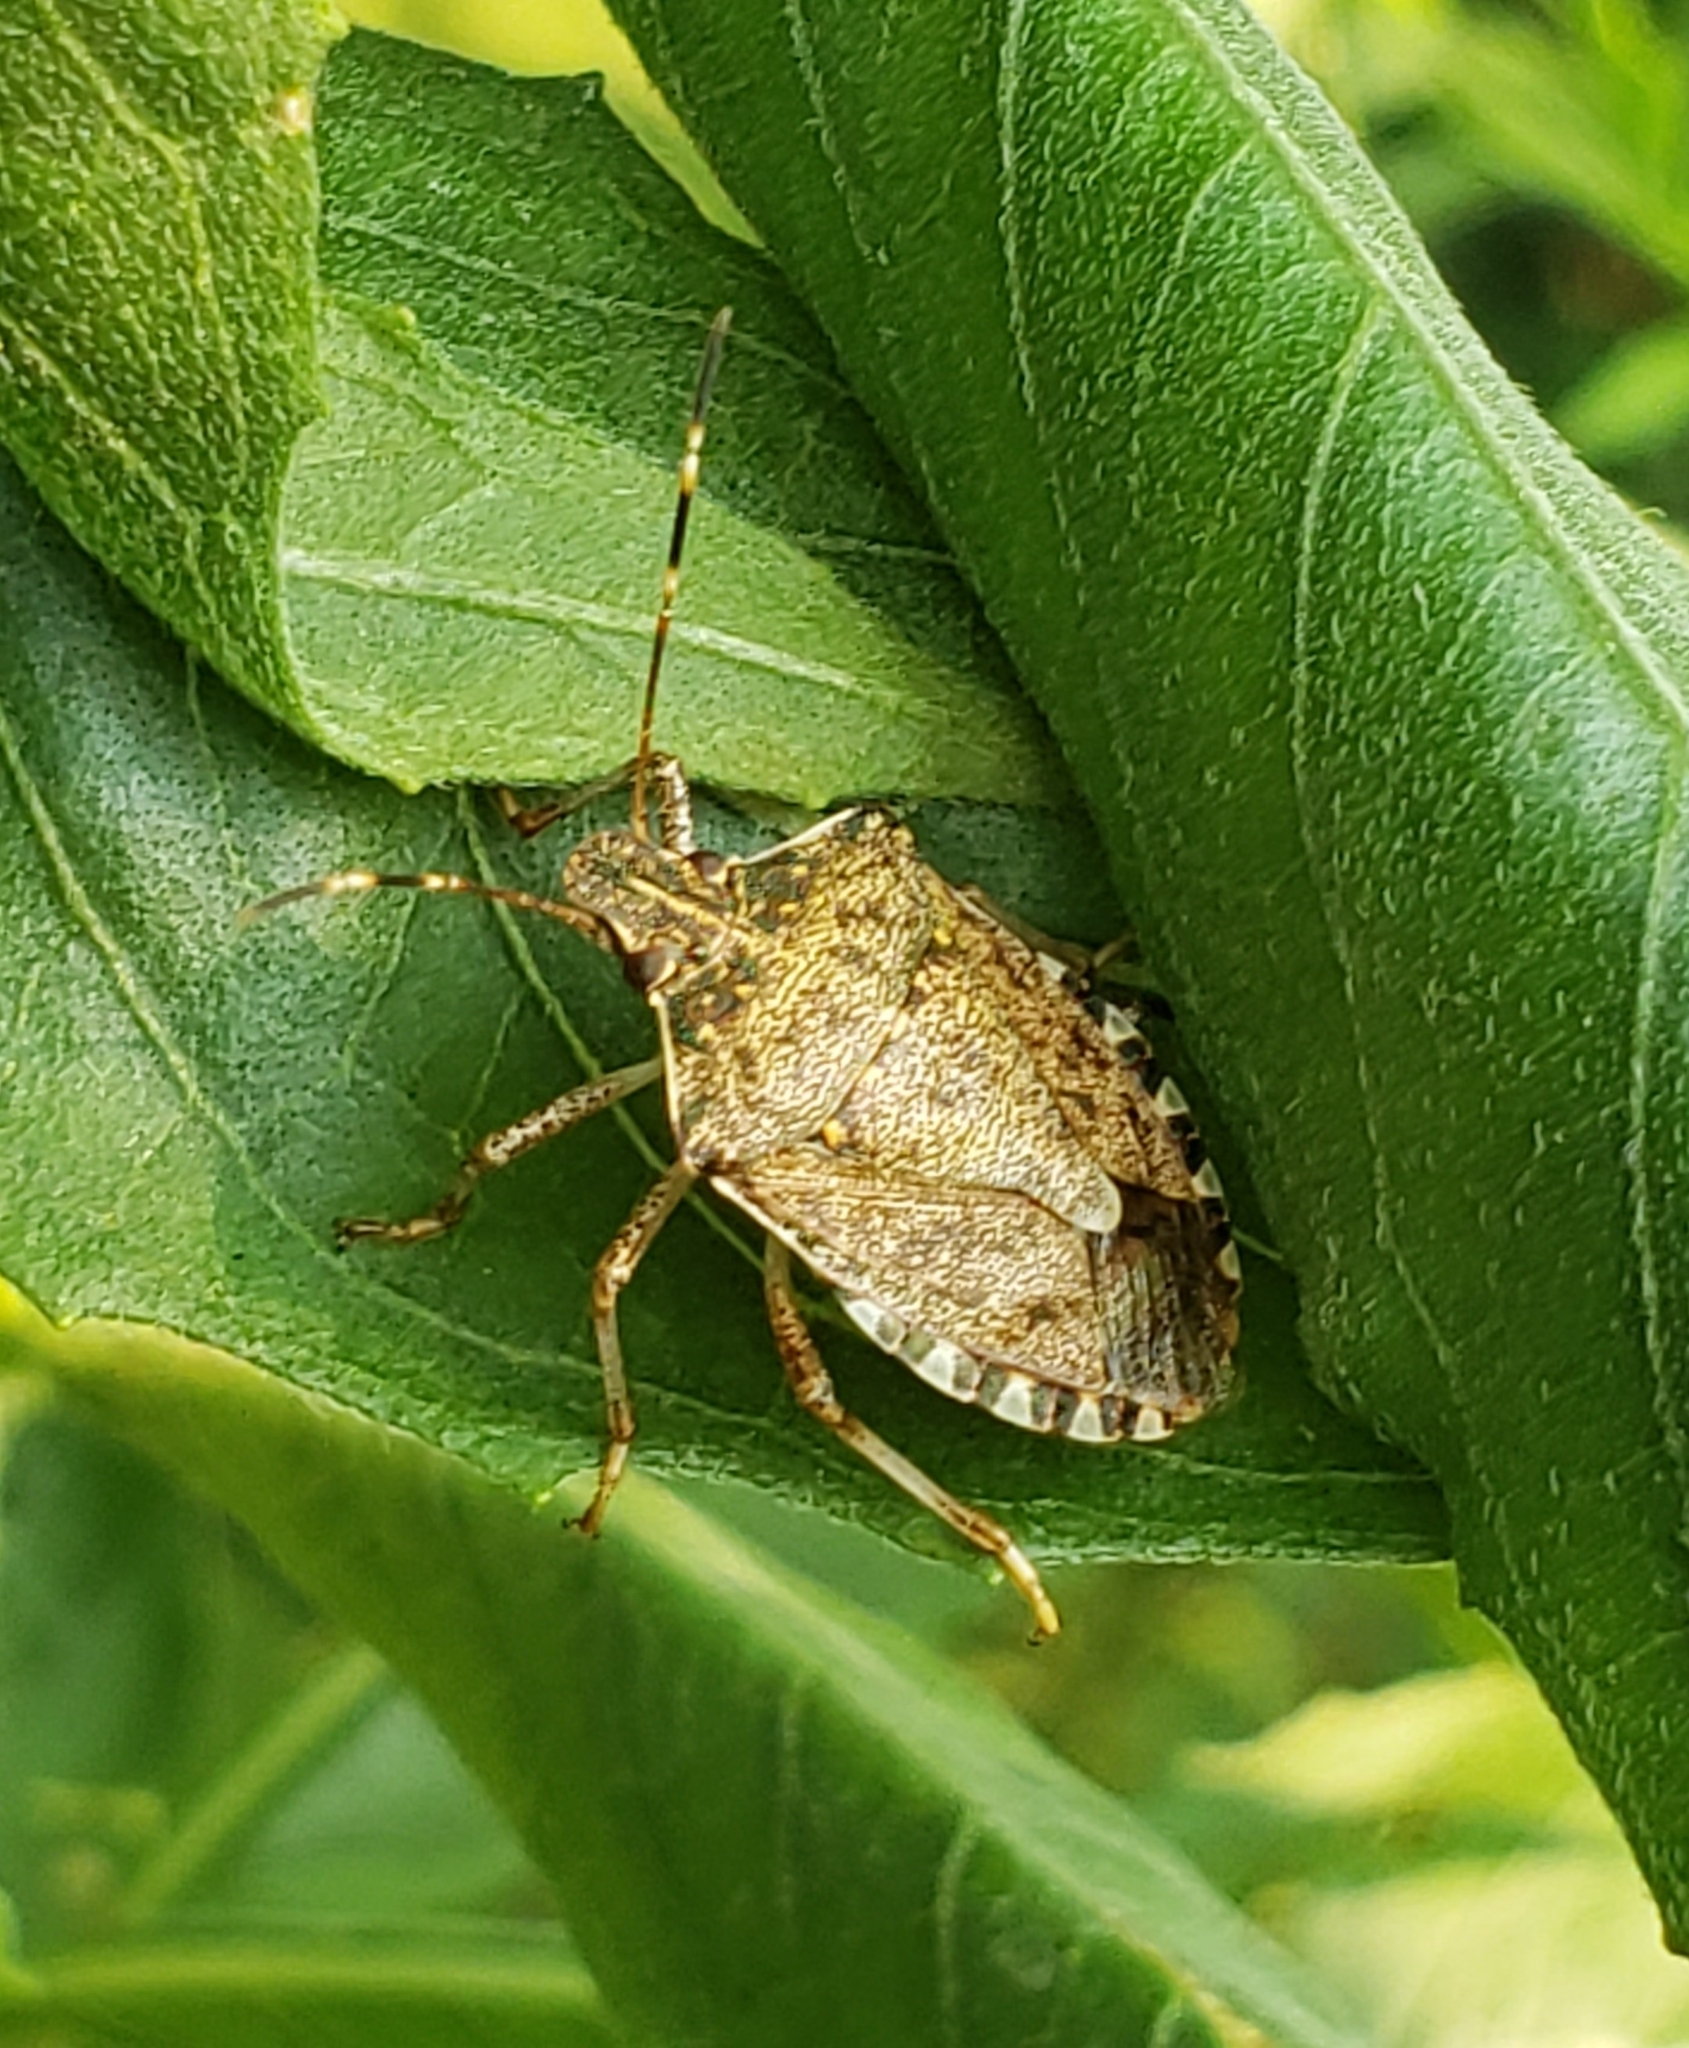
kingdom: Animalia
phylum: Arthropoda
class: Insecta
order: Hemiptera
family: Pentatomidae
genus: Halyomorpha
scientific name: Halyomorpha halys
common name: Brown marmorated stink bug
